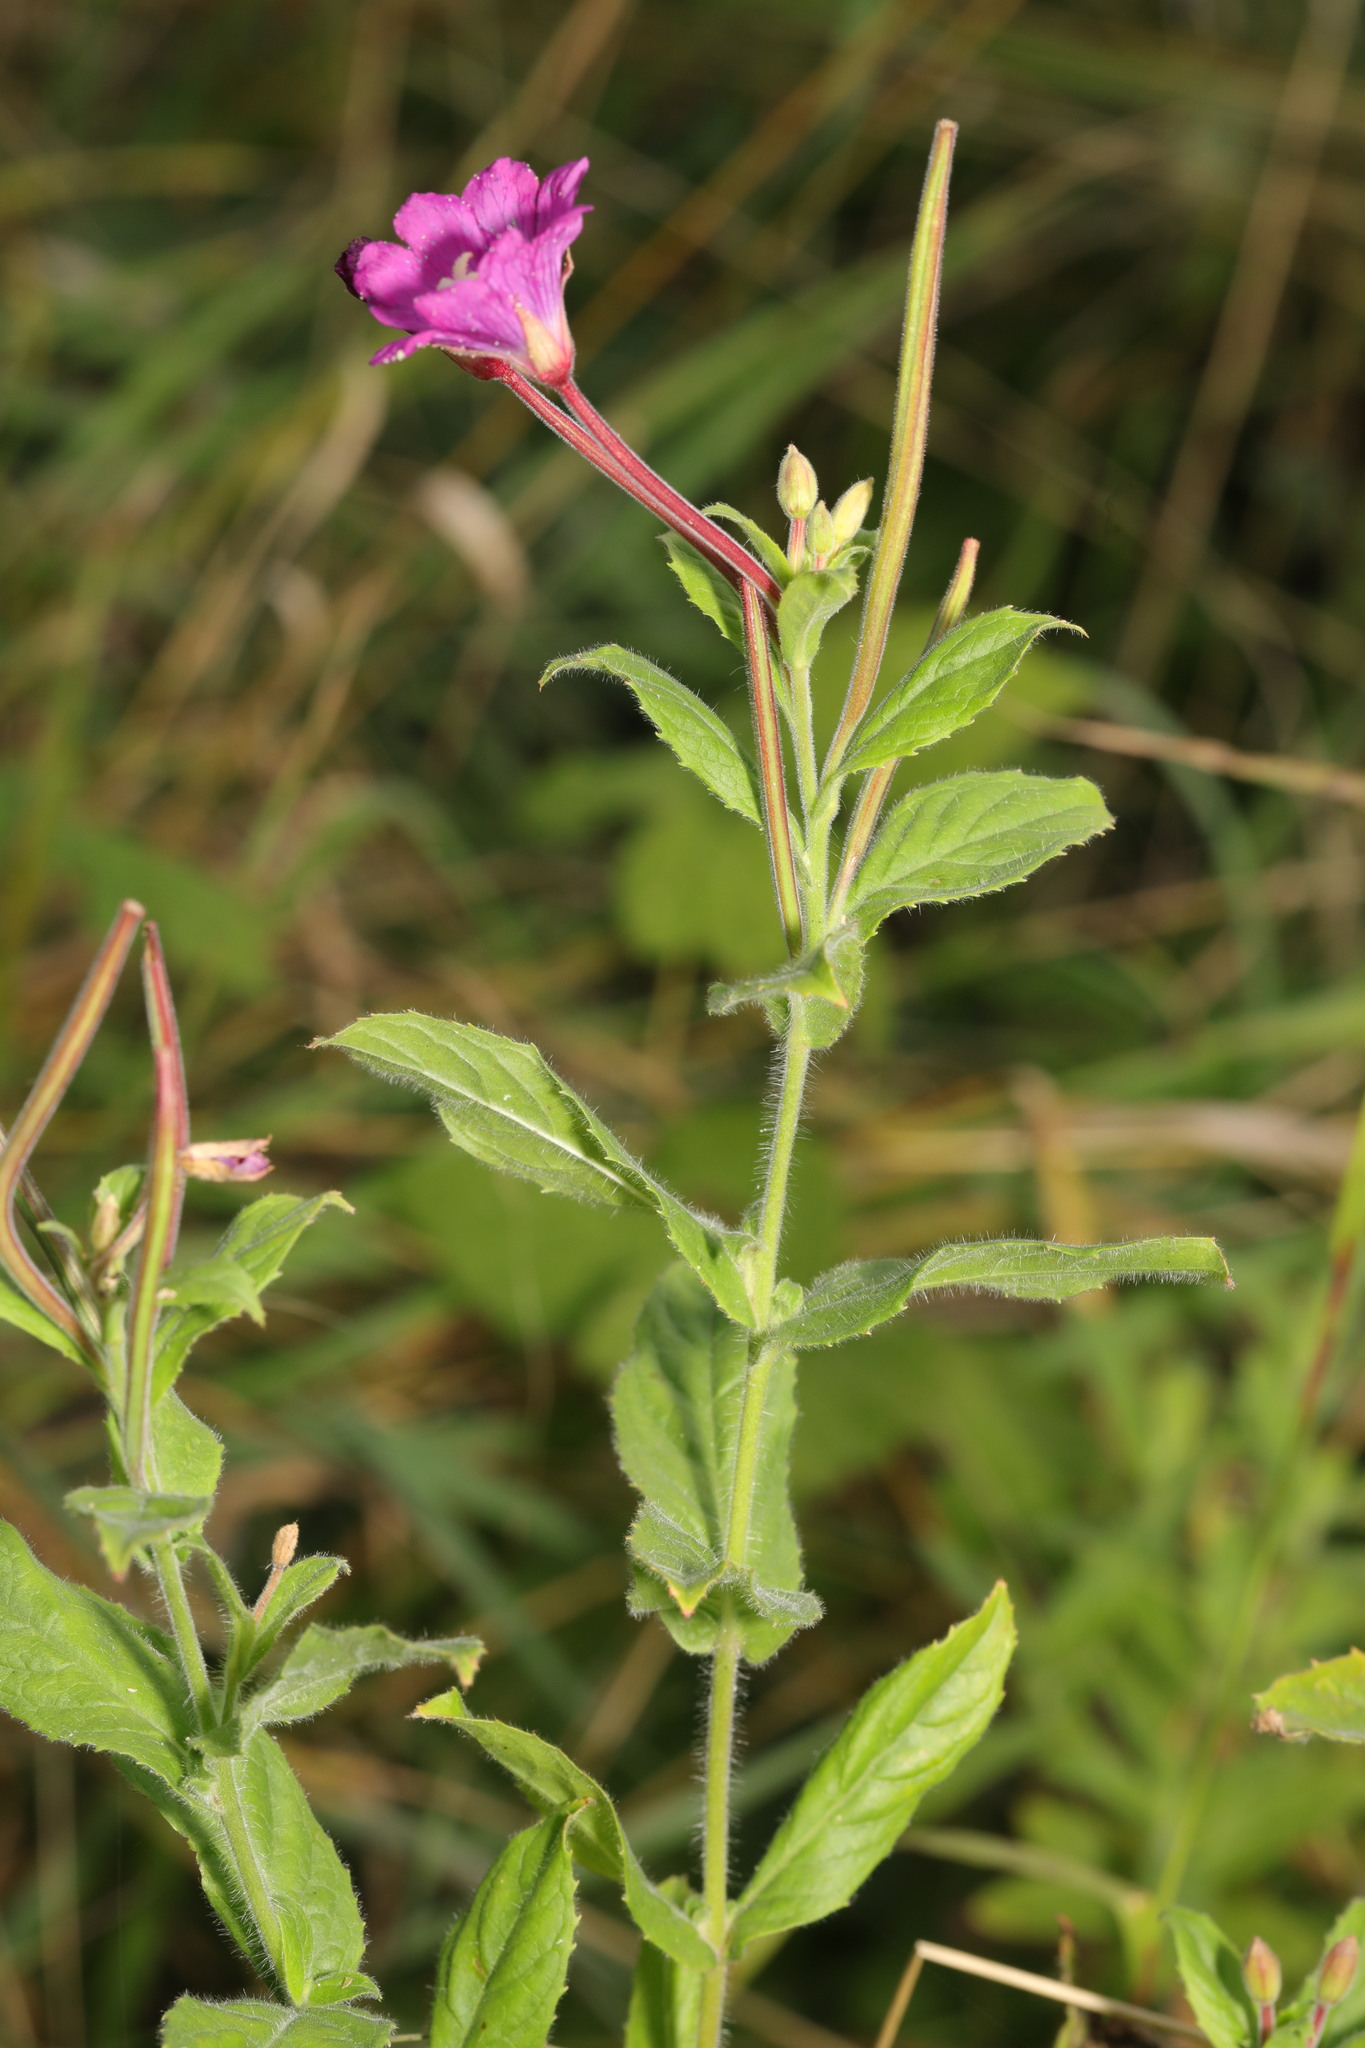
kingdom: Plantae
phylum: Tracheophyta
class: Magnoliopsida
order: Myrtales
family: Onagraceae
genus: Epilobium
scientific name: Epilobium hirsutum
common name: Great willowherb
